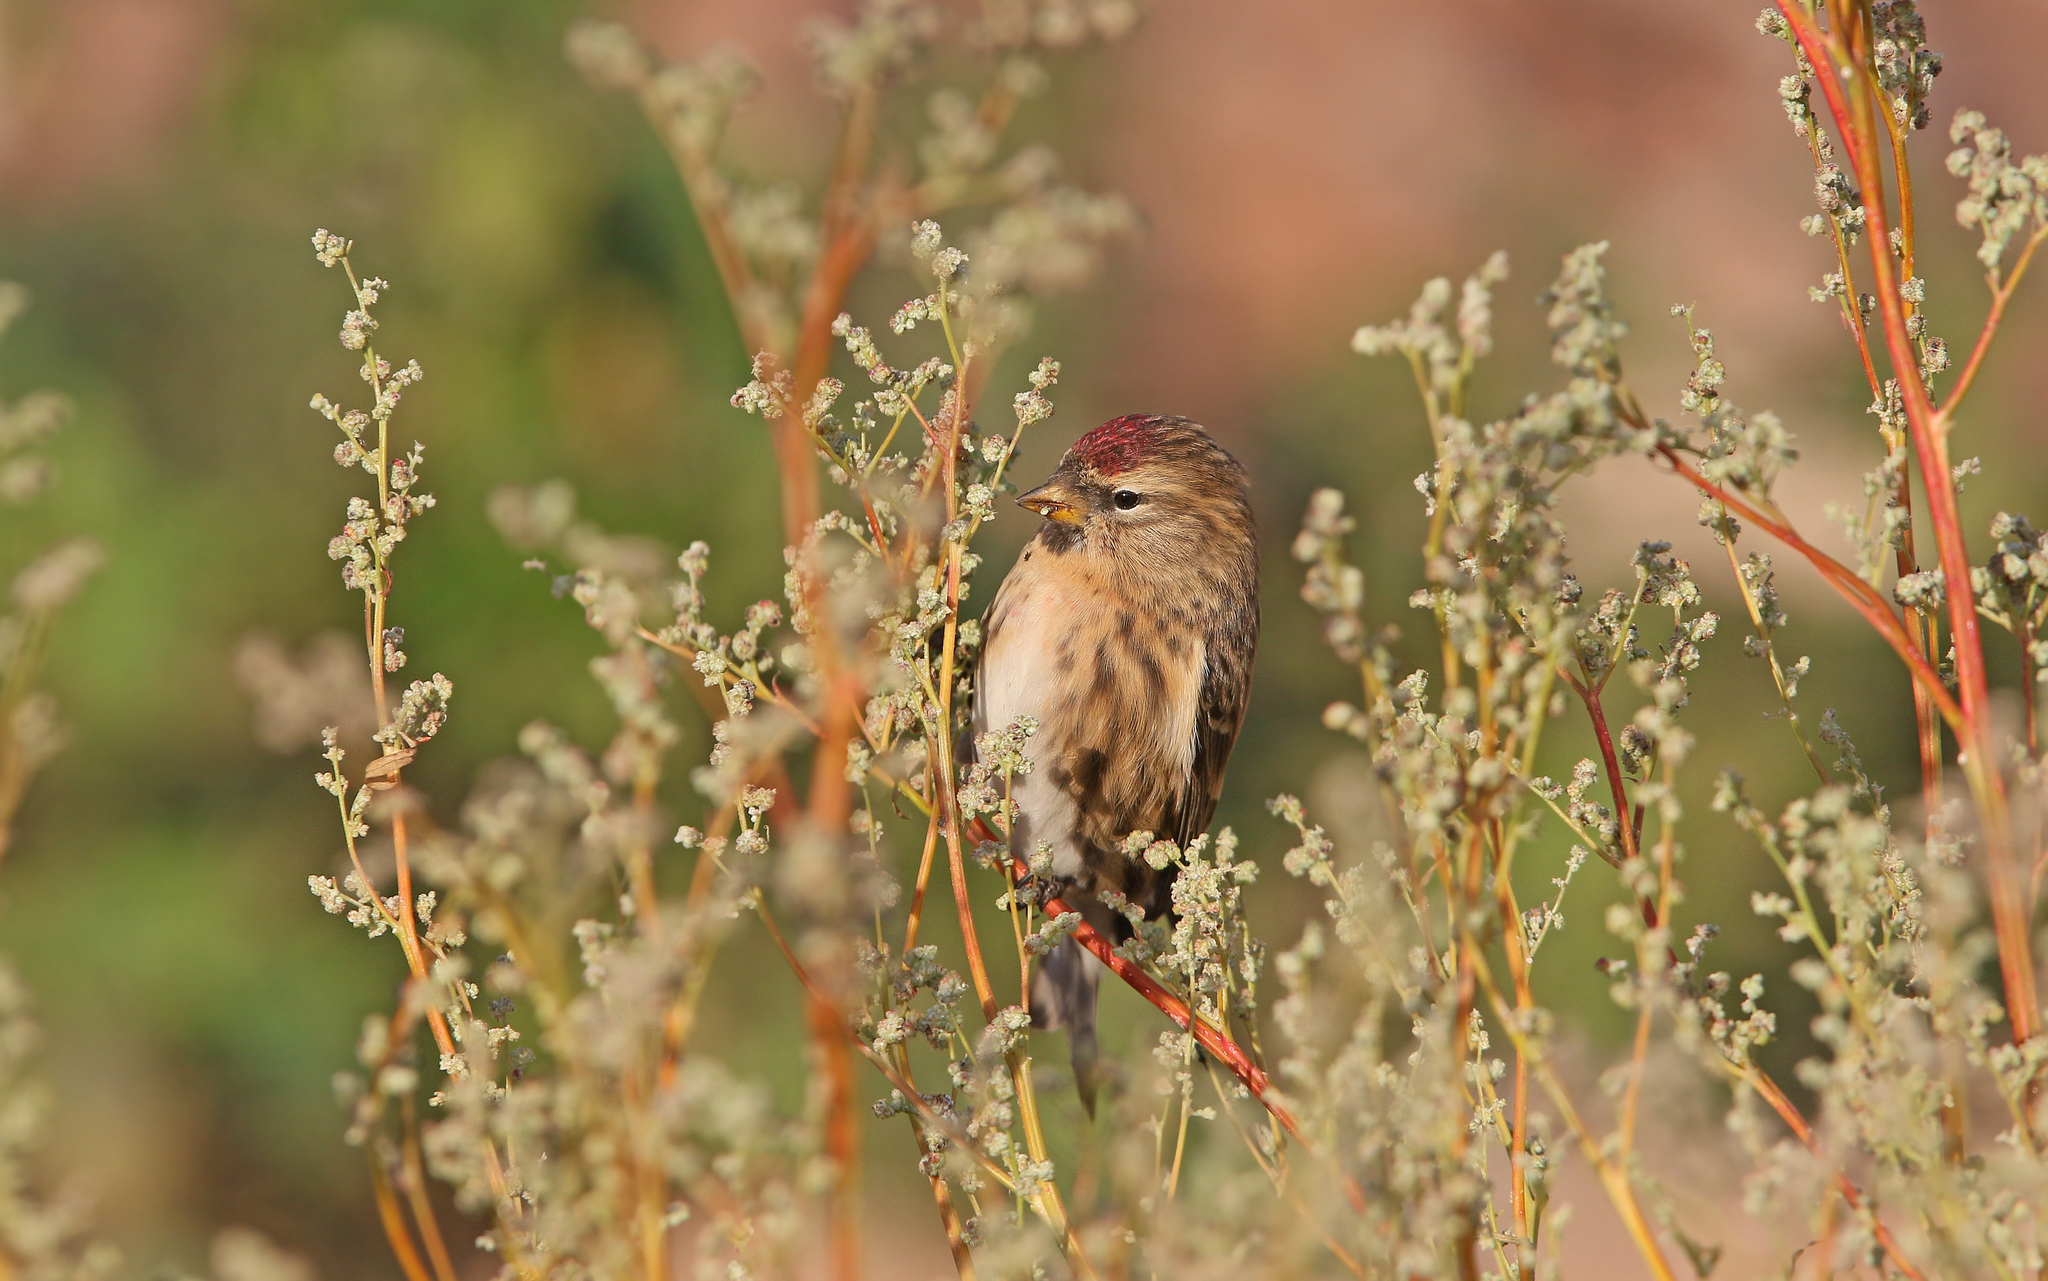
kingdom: Animalia
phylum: Chordata
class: Aves
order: Passeriformes
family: Fringillidae
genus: Acanthis
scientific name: Acanthis flammea
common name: Common redpoll
